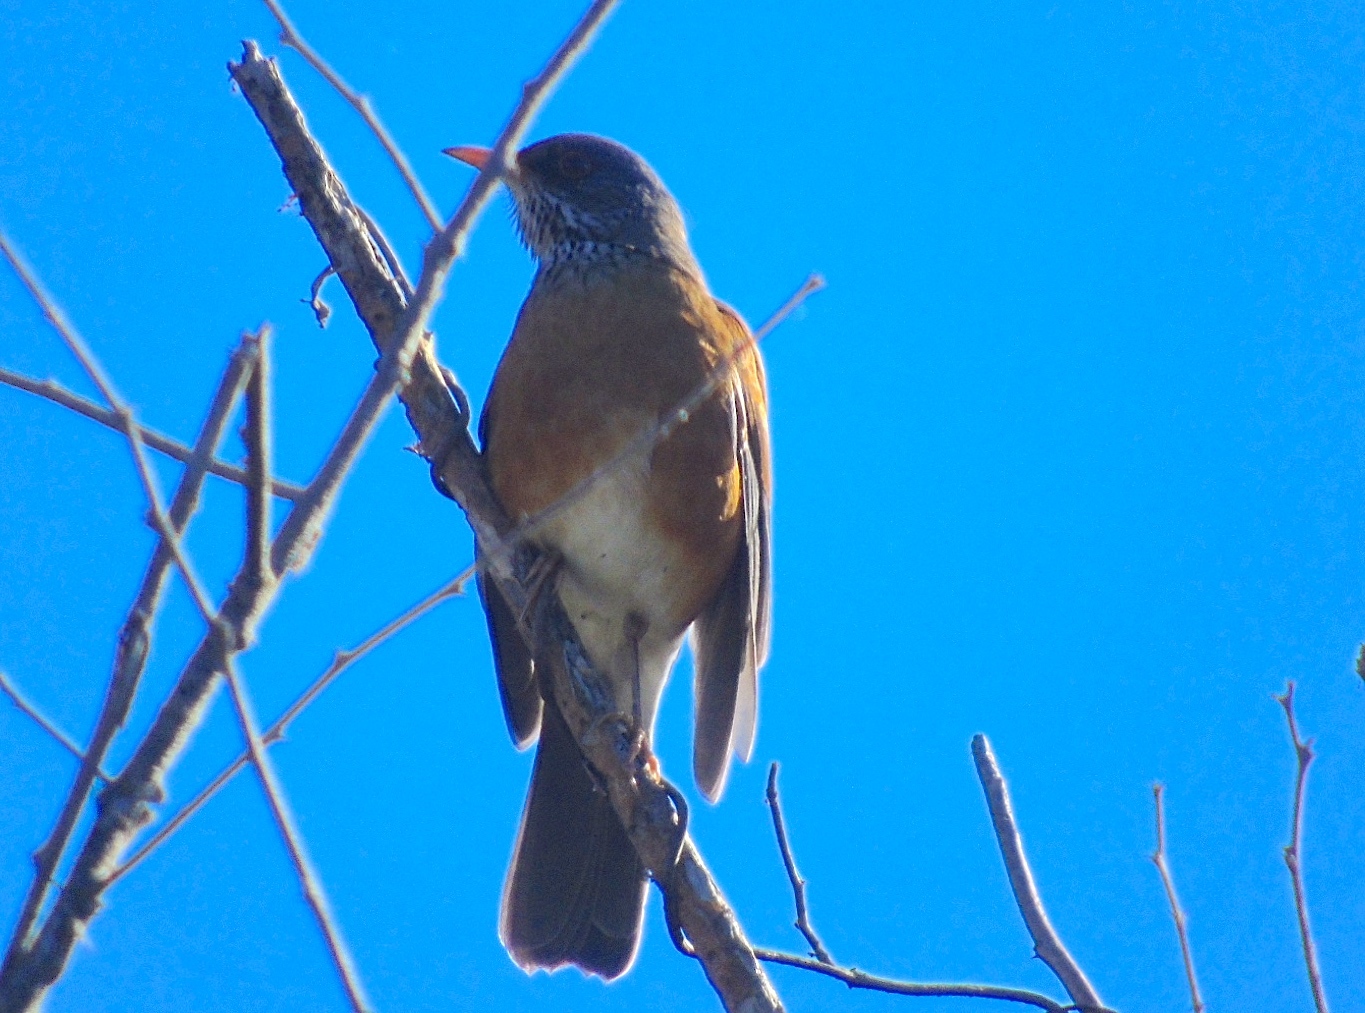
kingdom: Animalia
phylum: Chordata
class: Aves
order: Passeriformes
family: Turdidae
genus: Turdus
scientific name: Turdus rufopalliatus
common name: Rufous-backed robin
